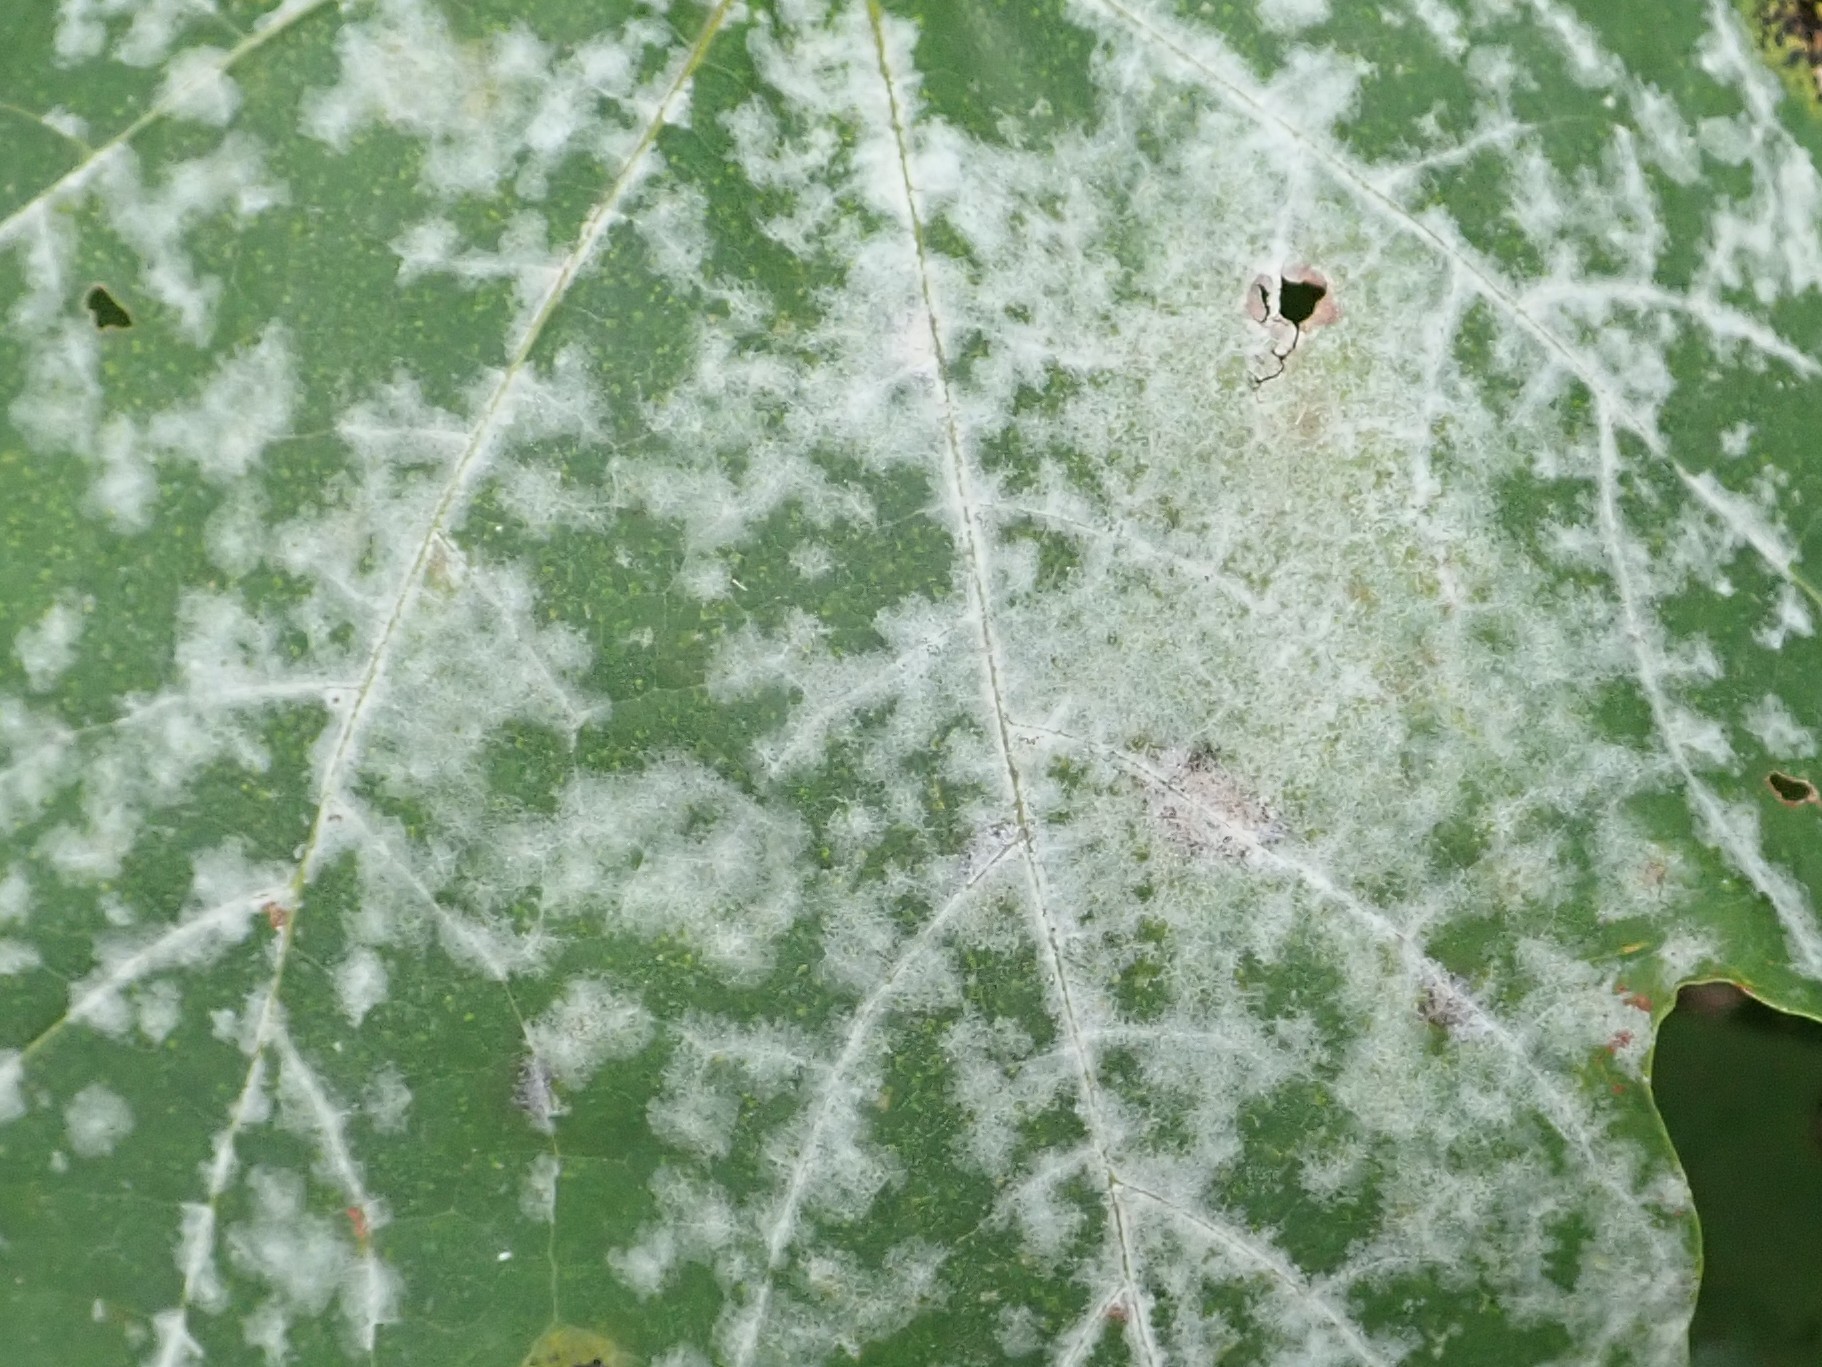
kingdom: Fungi
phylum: Ascomycota
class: Leotiomycetes
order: Helotiales
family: Erysiphaceae
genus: Sawadaea
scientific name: Sawadaea tulasnei
